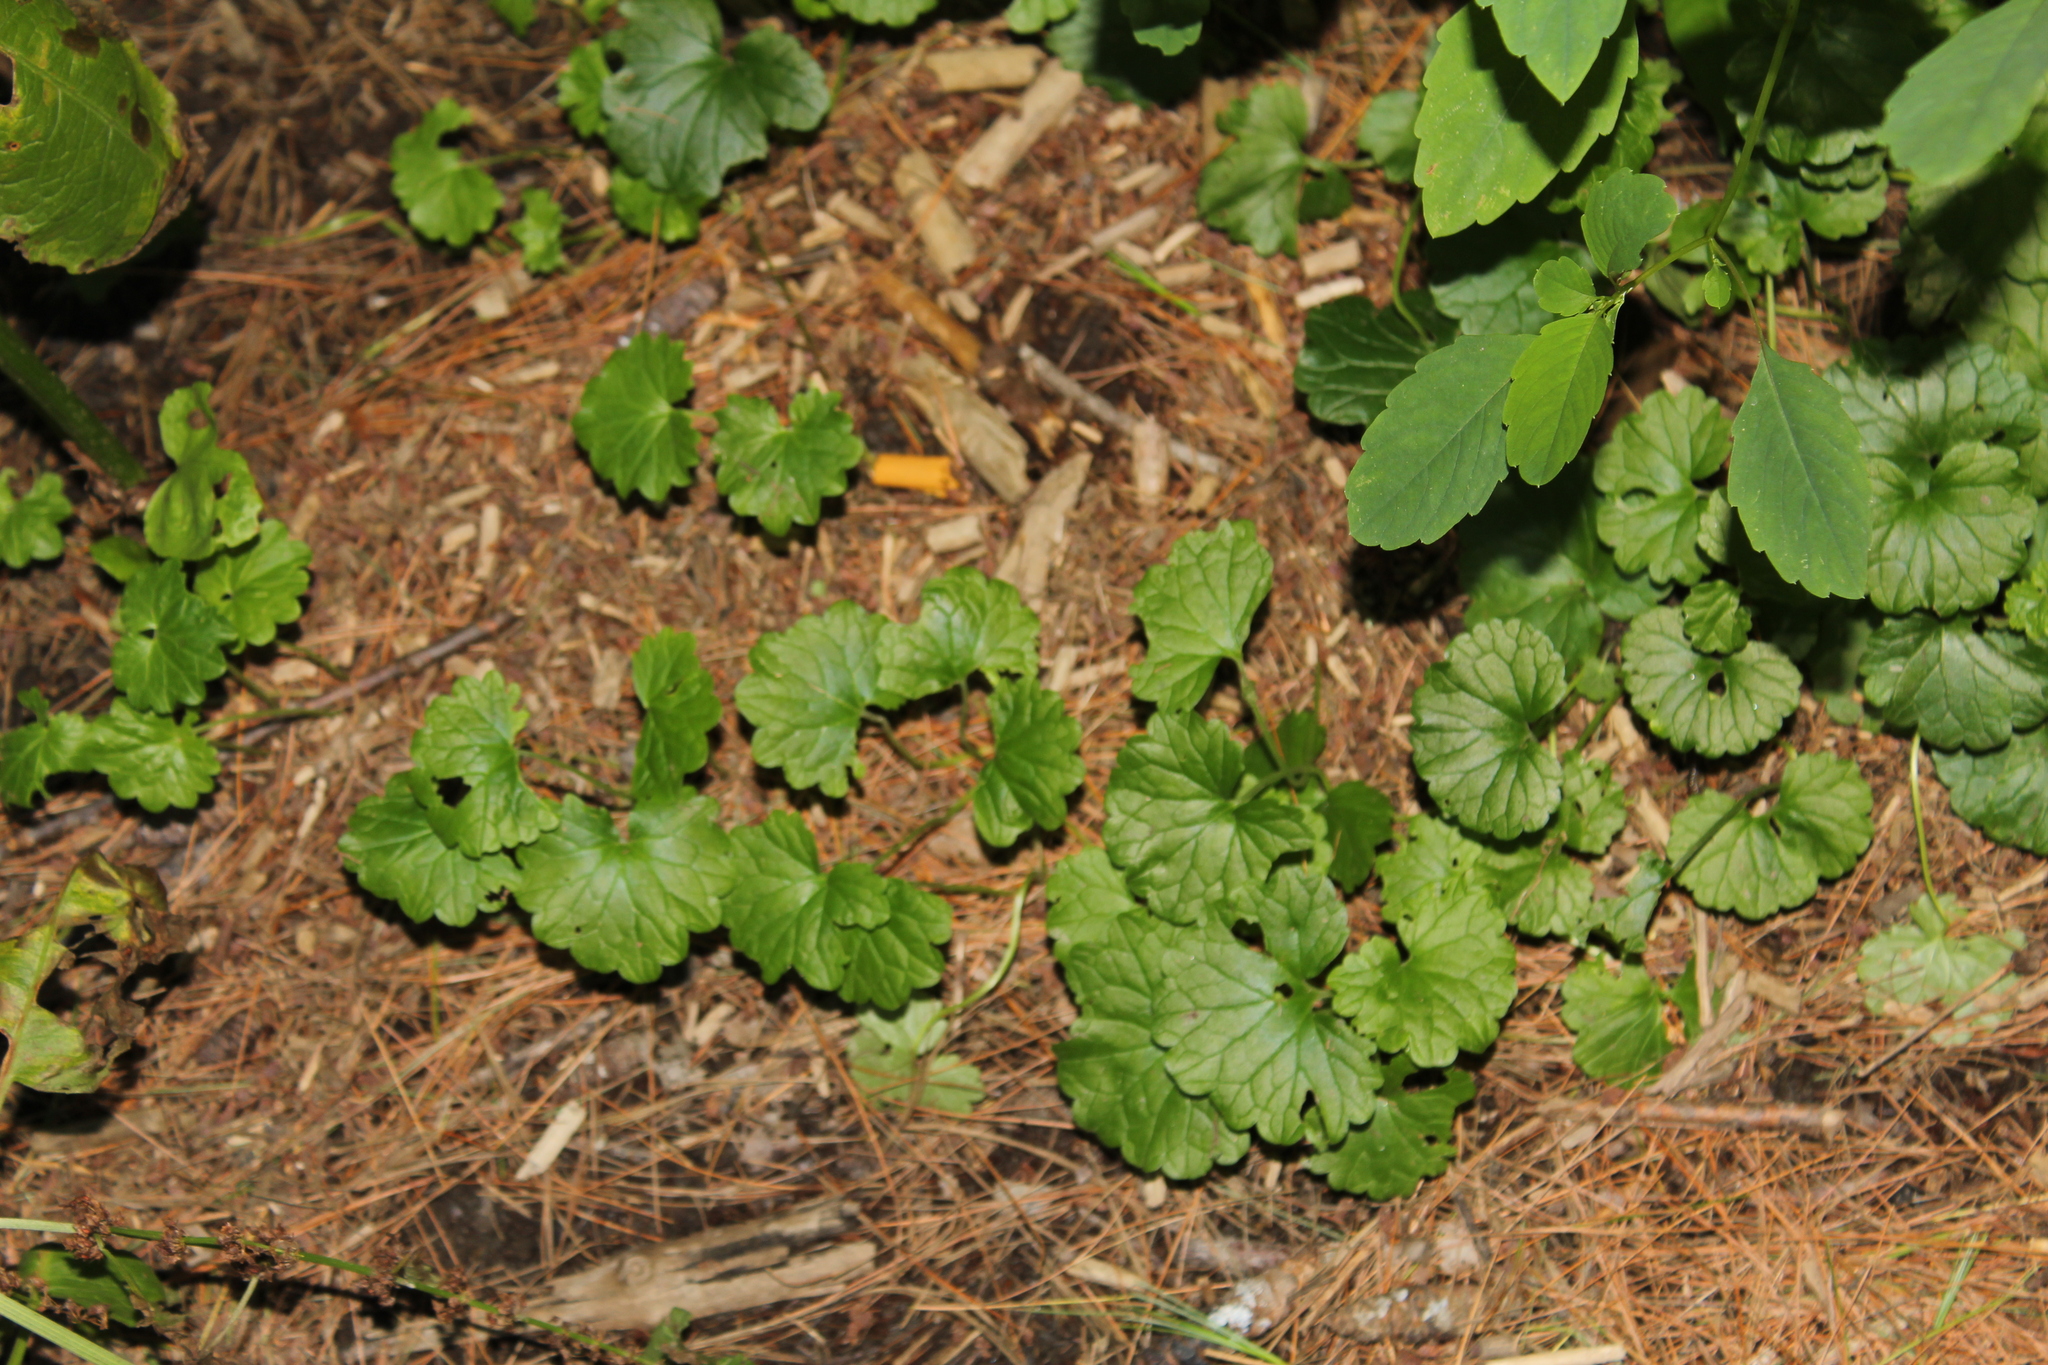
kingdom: Plantae
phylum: Tracheophyta
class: Magnoliopsida
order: Lamiales
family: Lamiaceae
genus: Glechoma
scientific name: Glechoma hederacea
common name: Ground ivy
